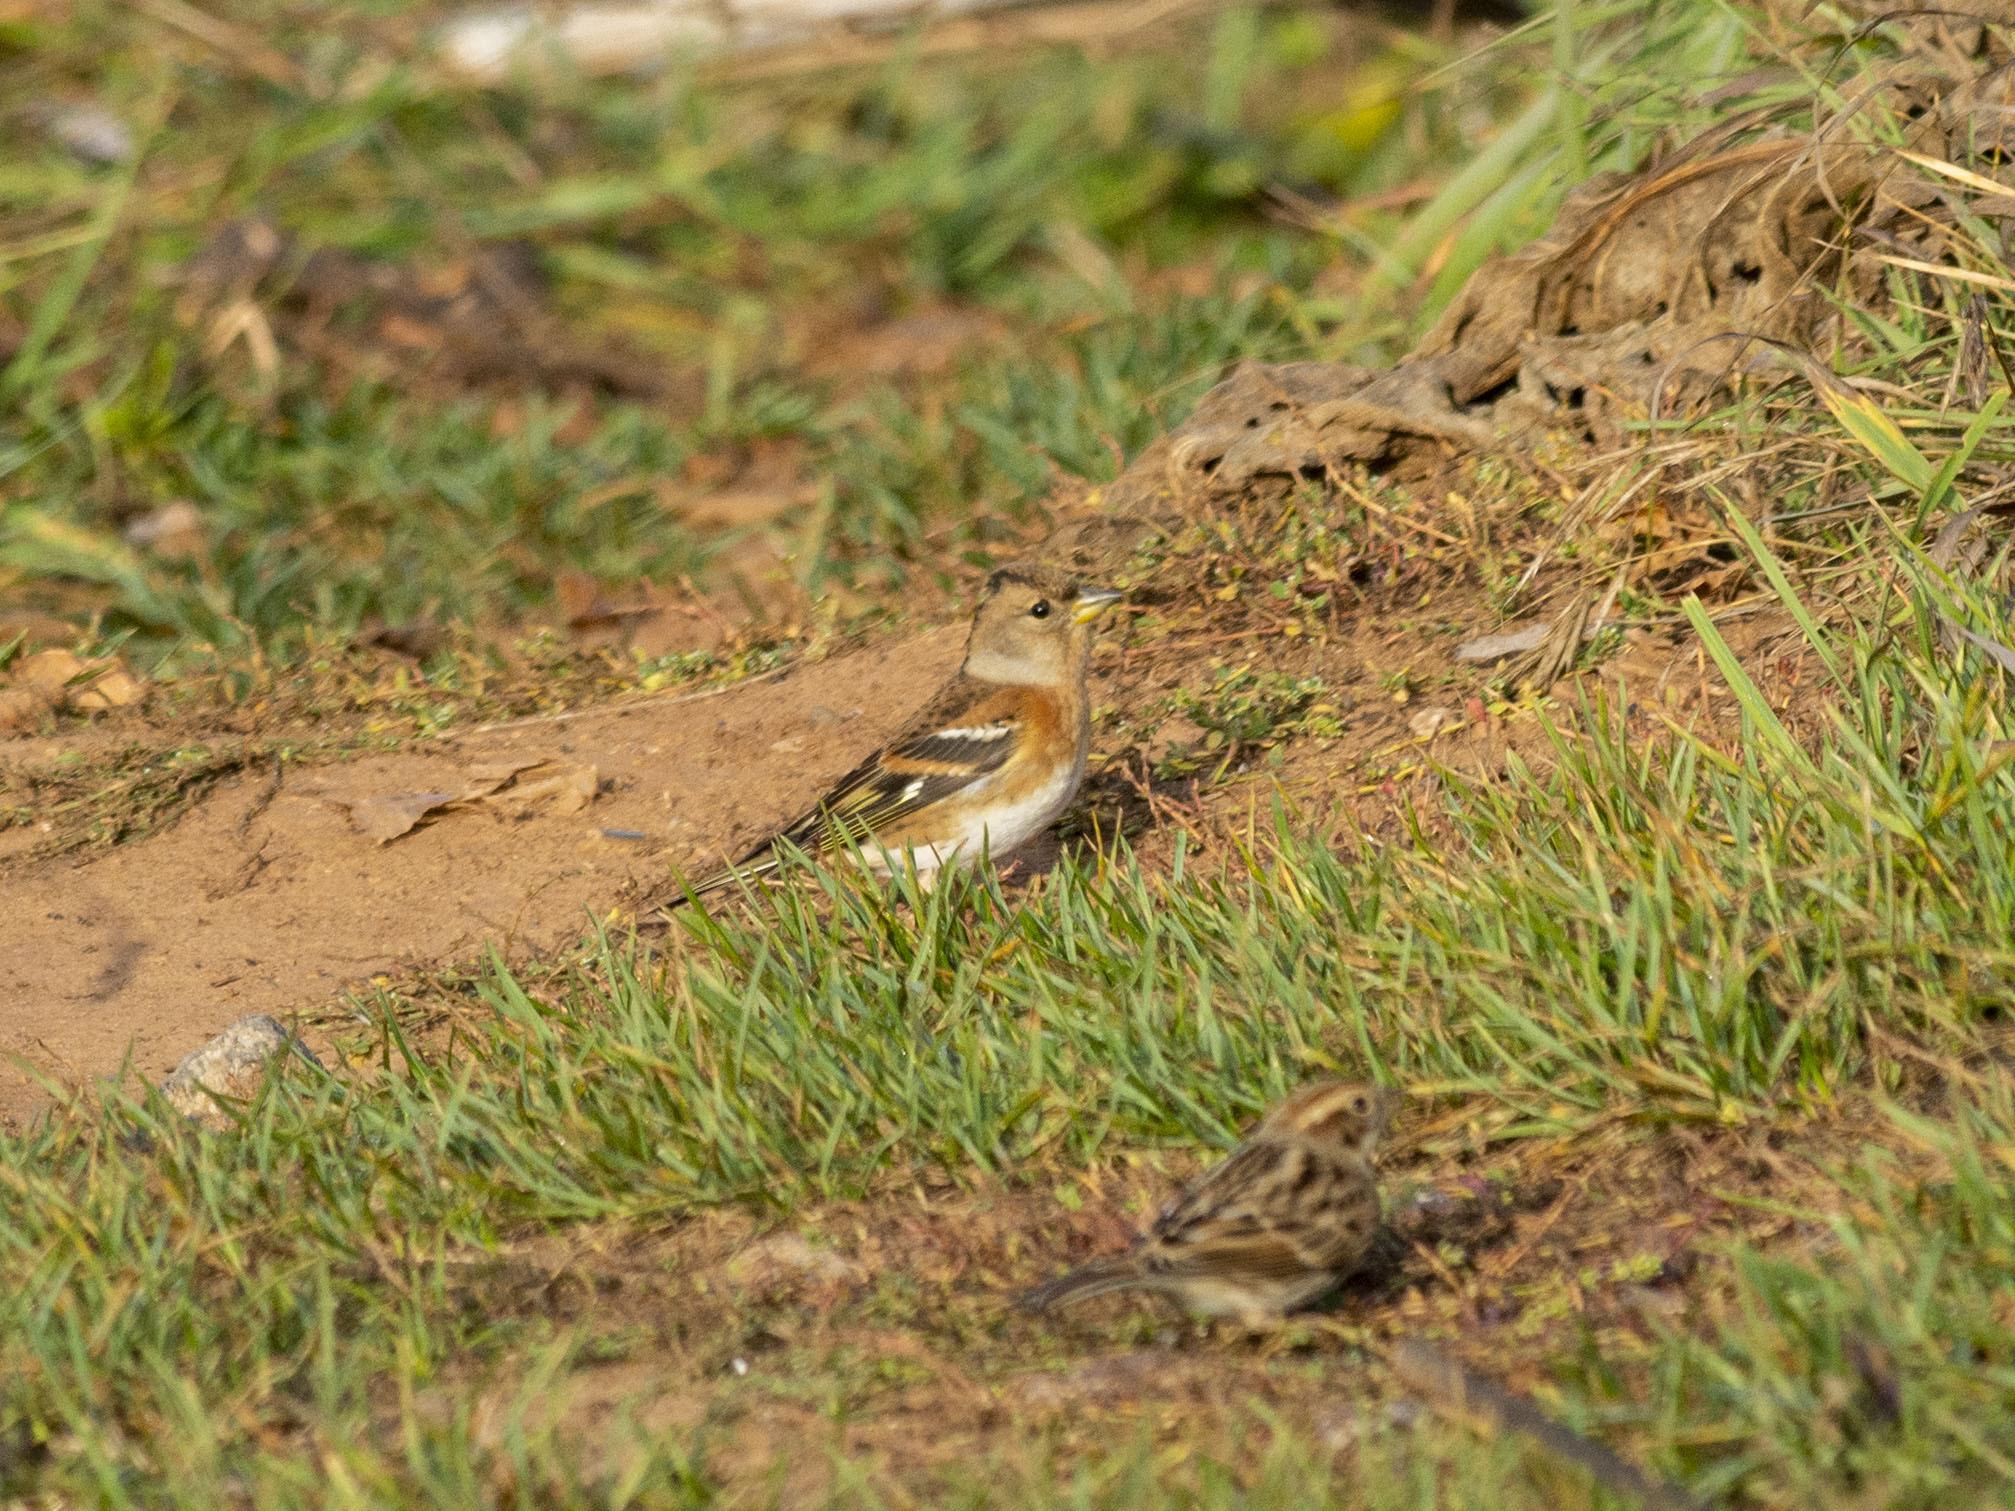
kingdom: Animalia
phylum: Chordata
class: Aves
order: Passeriformes
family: Fringillidae
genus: Fringilla
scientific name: Fringilla montifringilla
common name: Brambling
